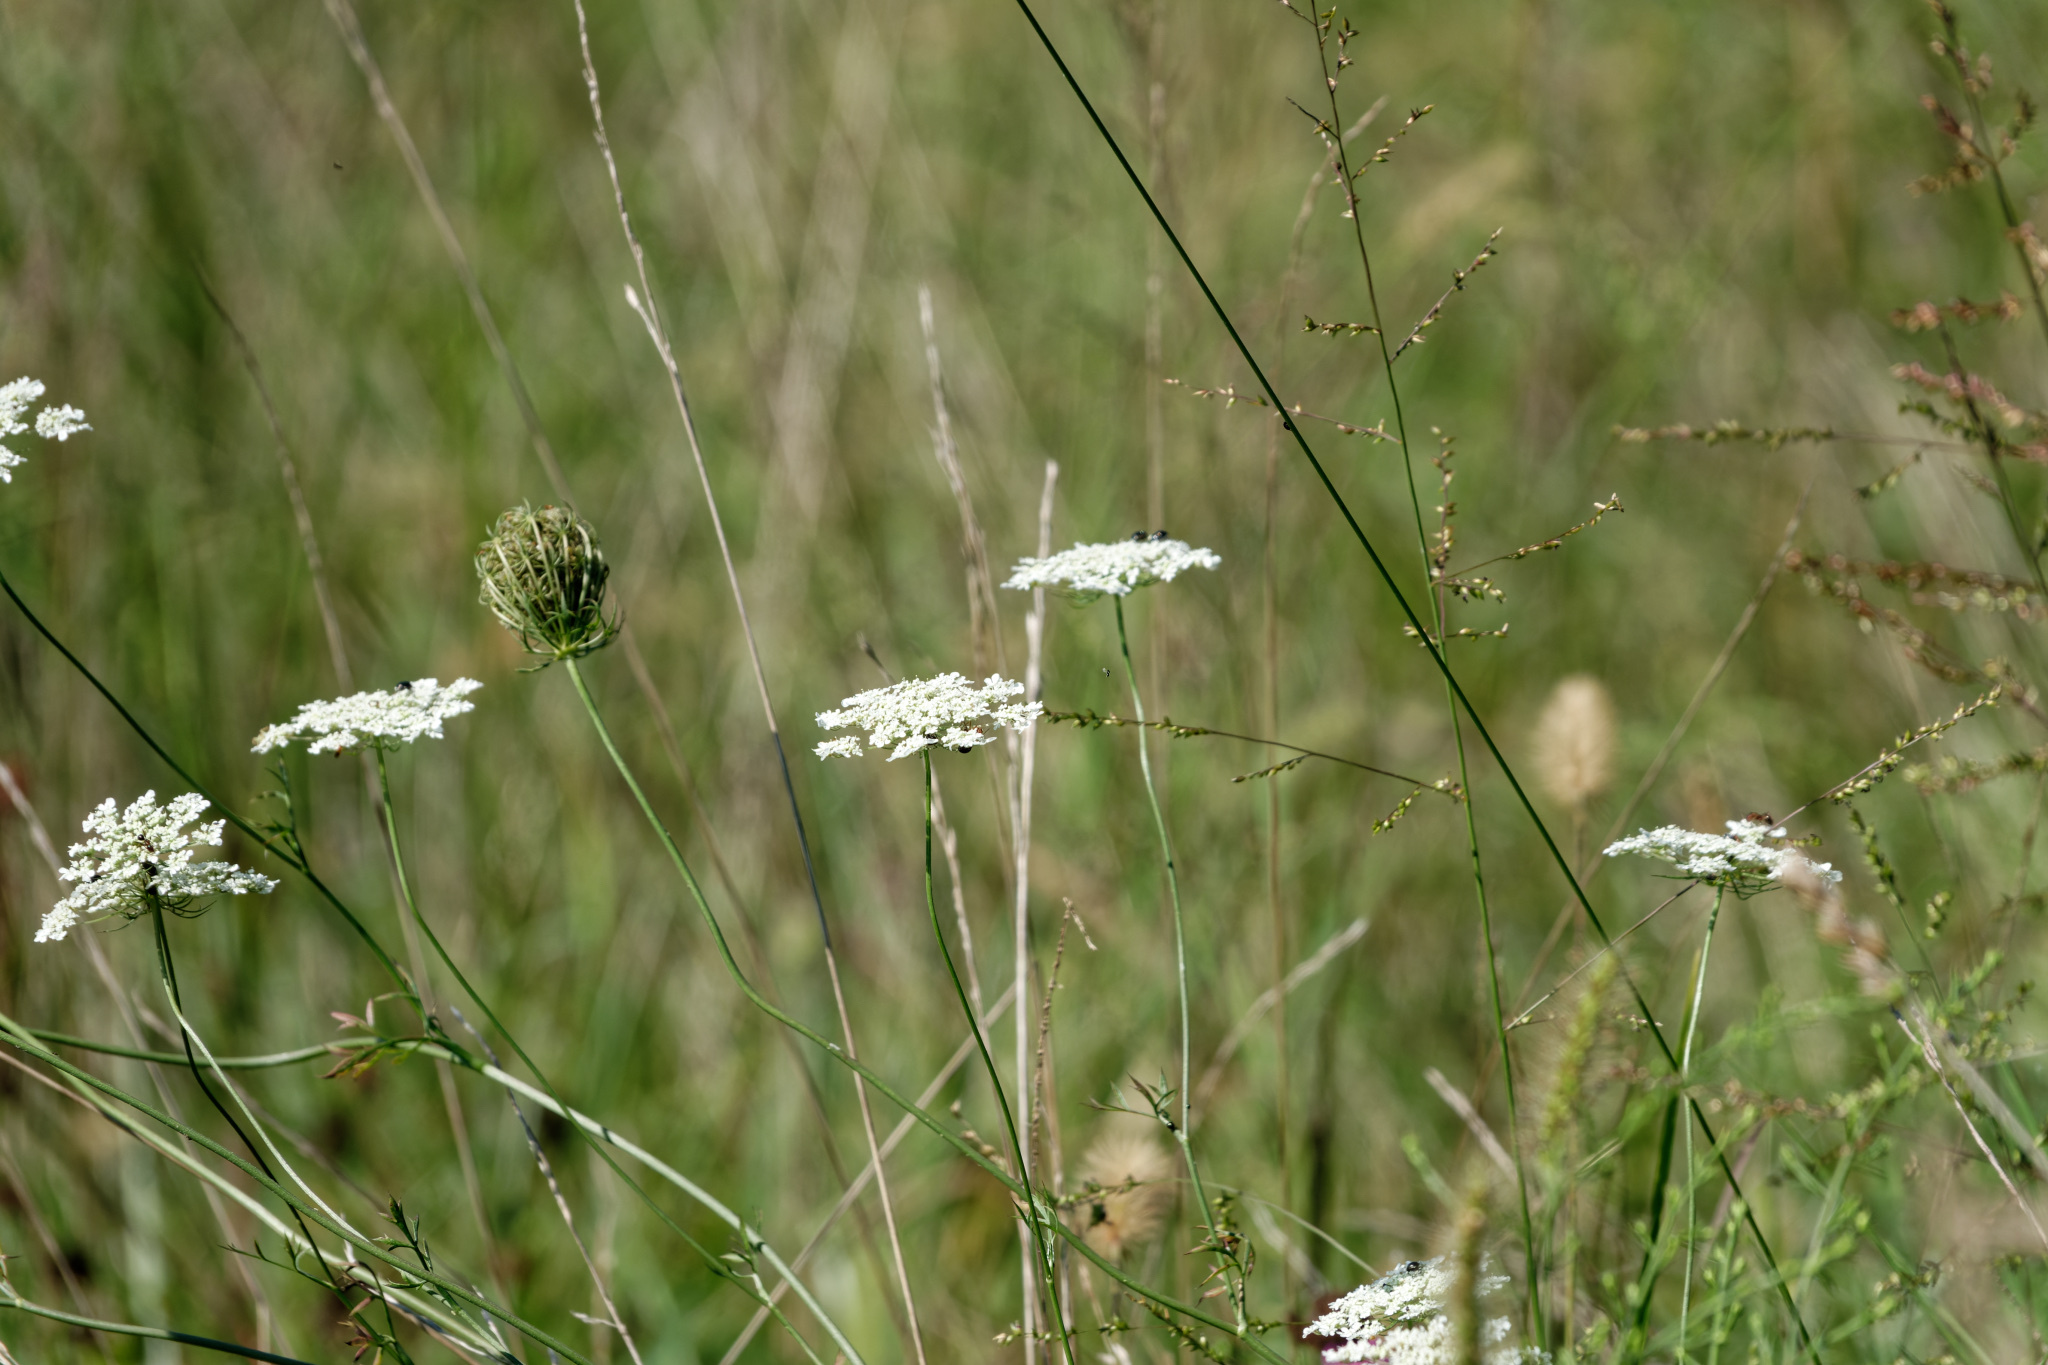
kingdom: Plantae
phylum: Tracheophyta
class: Magnoliopsida
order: Apiales
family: Apiaceae
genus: Daucus
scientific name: Daucus carota
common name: Wild carrot
